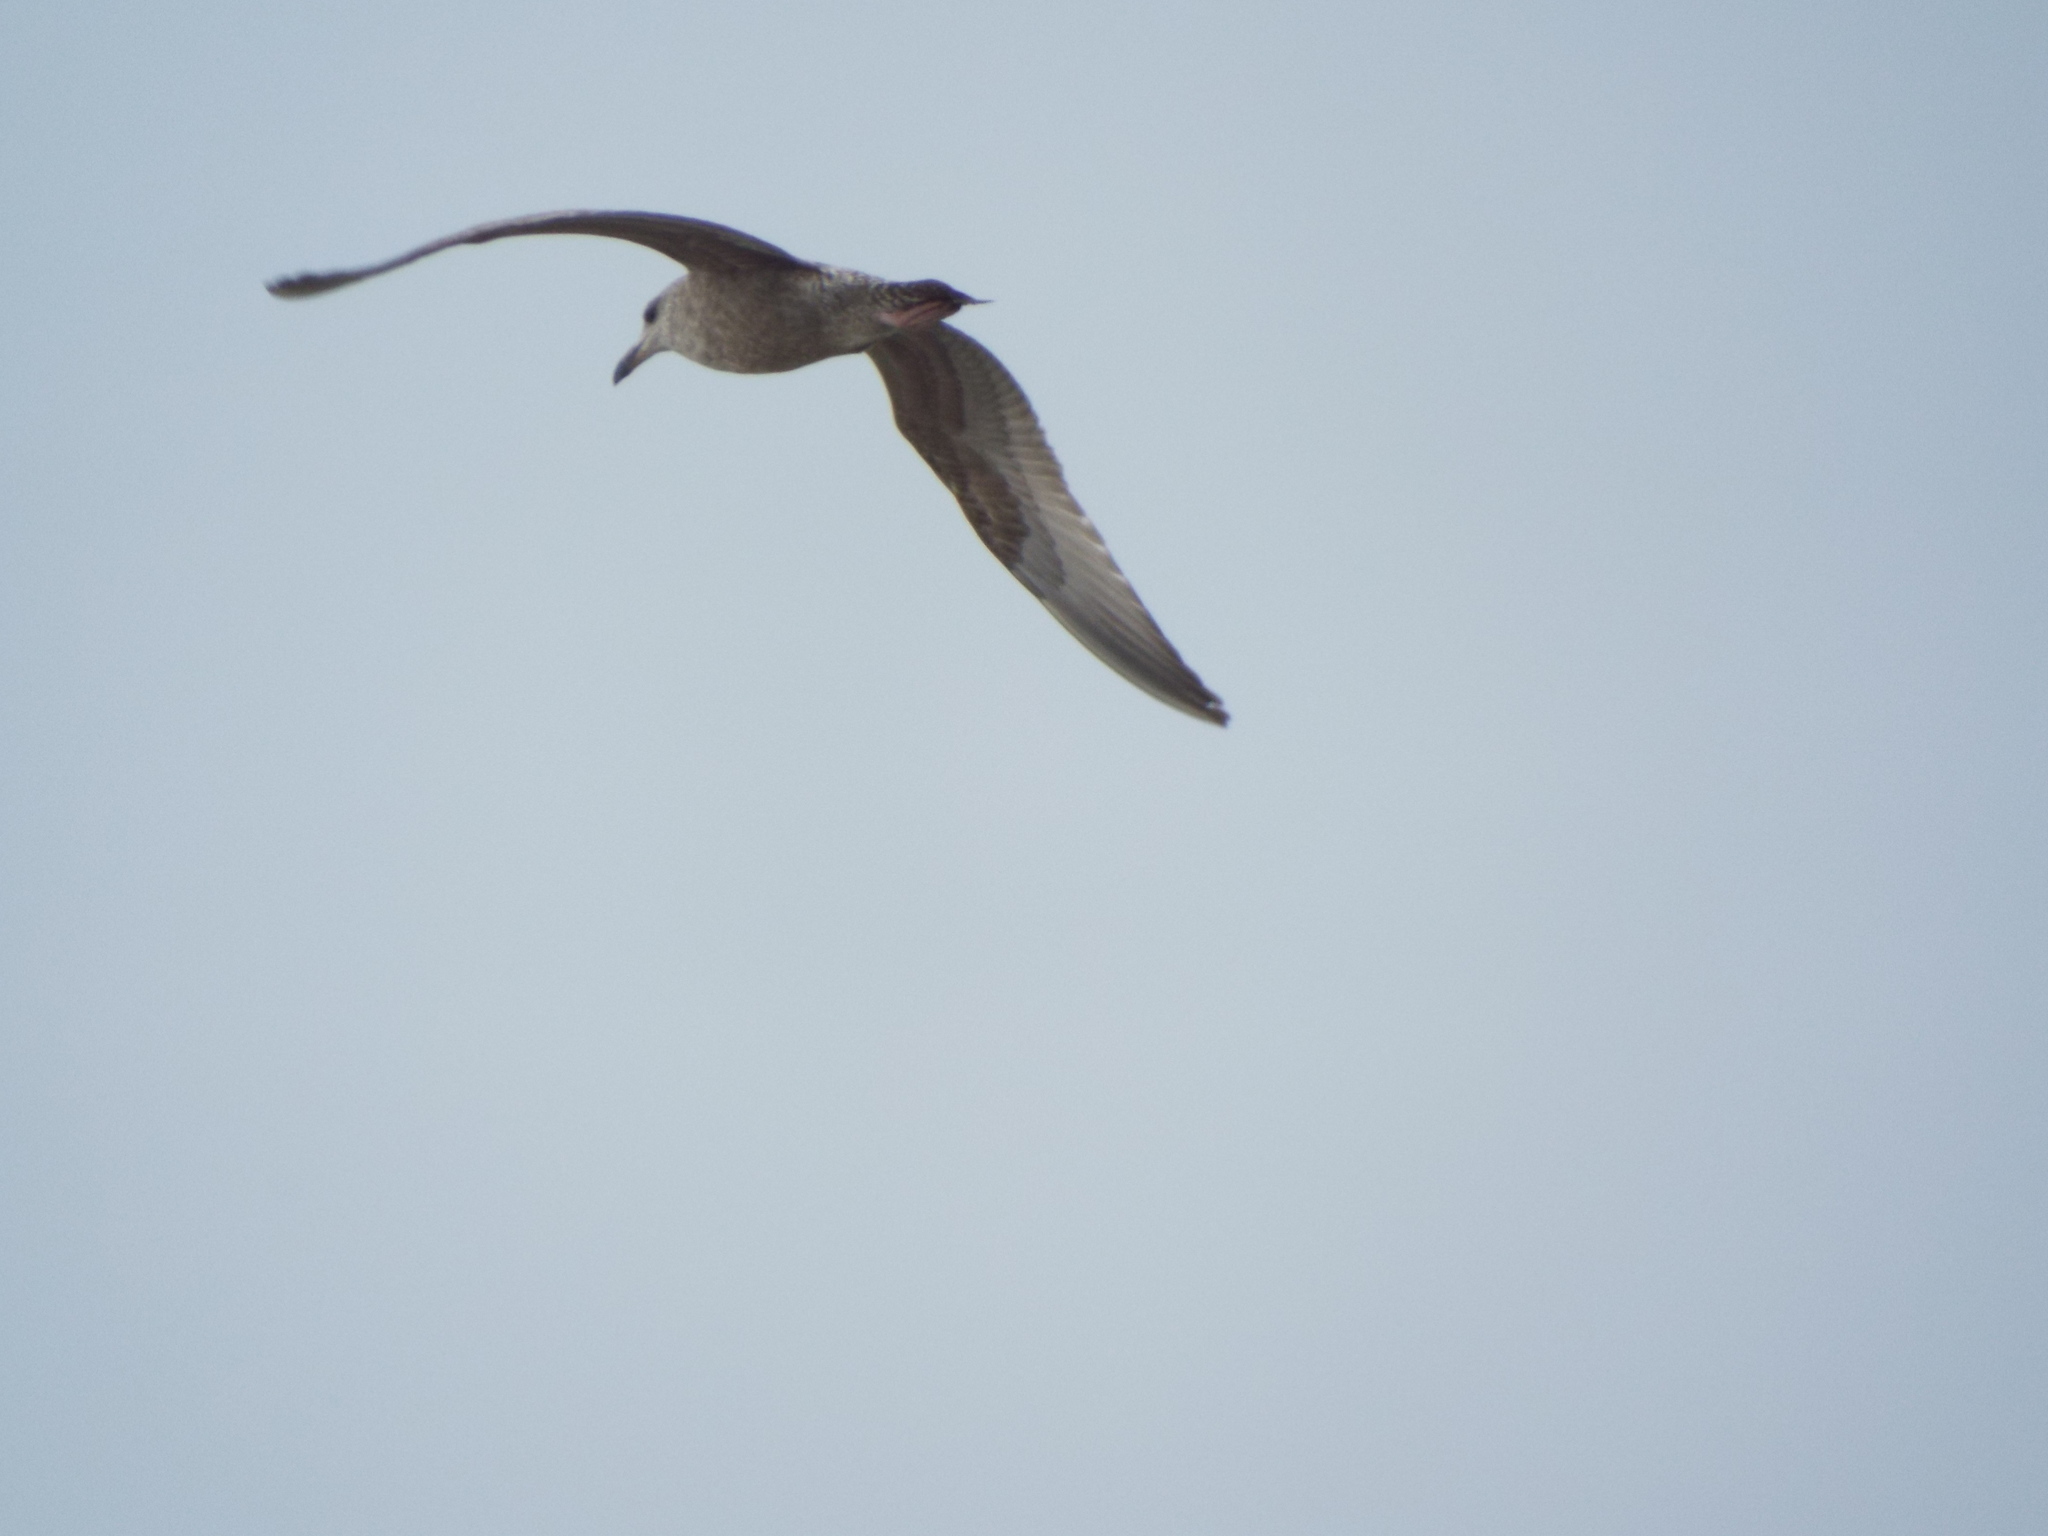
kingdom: Animalia
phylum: Chordata
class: Aves
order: Charadriiformes
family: Laridae
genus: Larus
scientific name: Larus argentatus
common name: Herring gull
